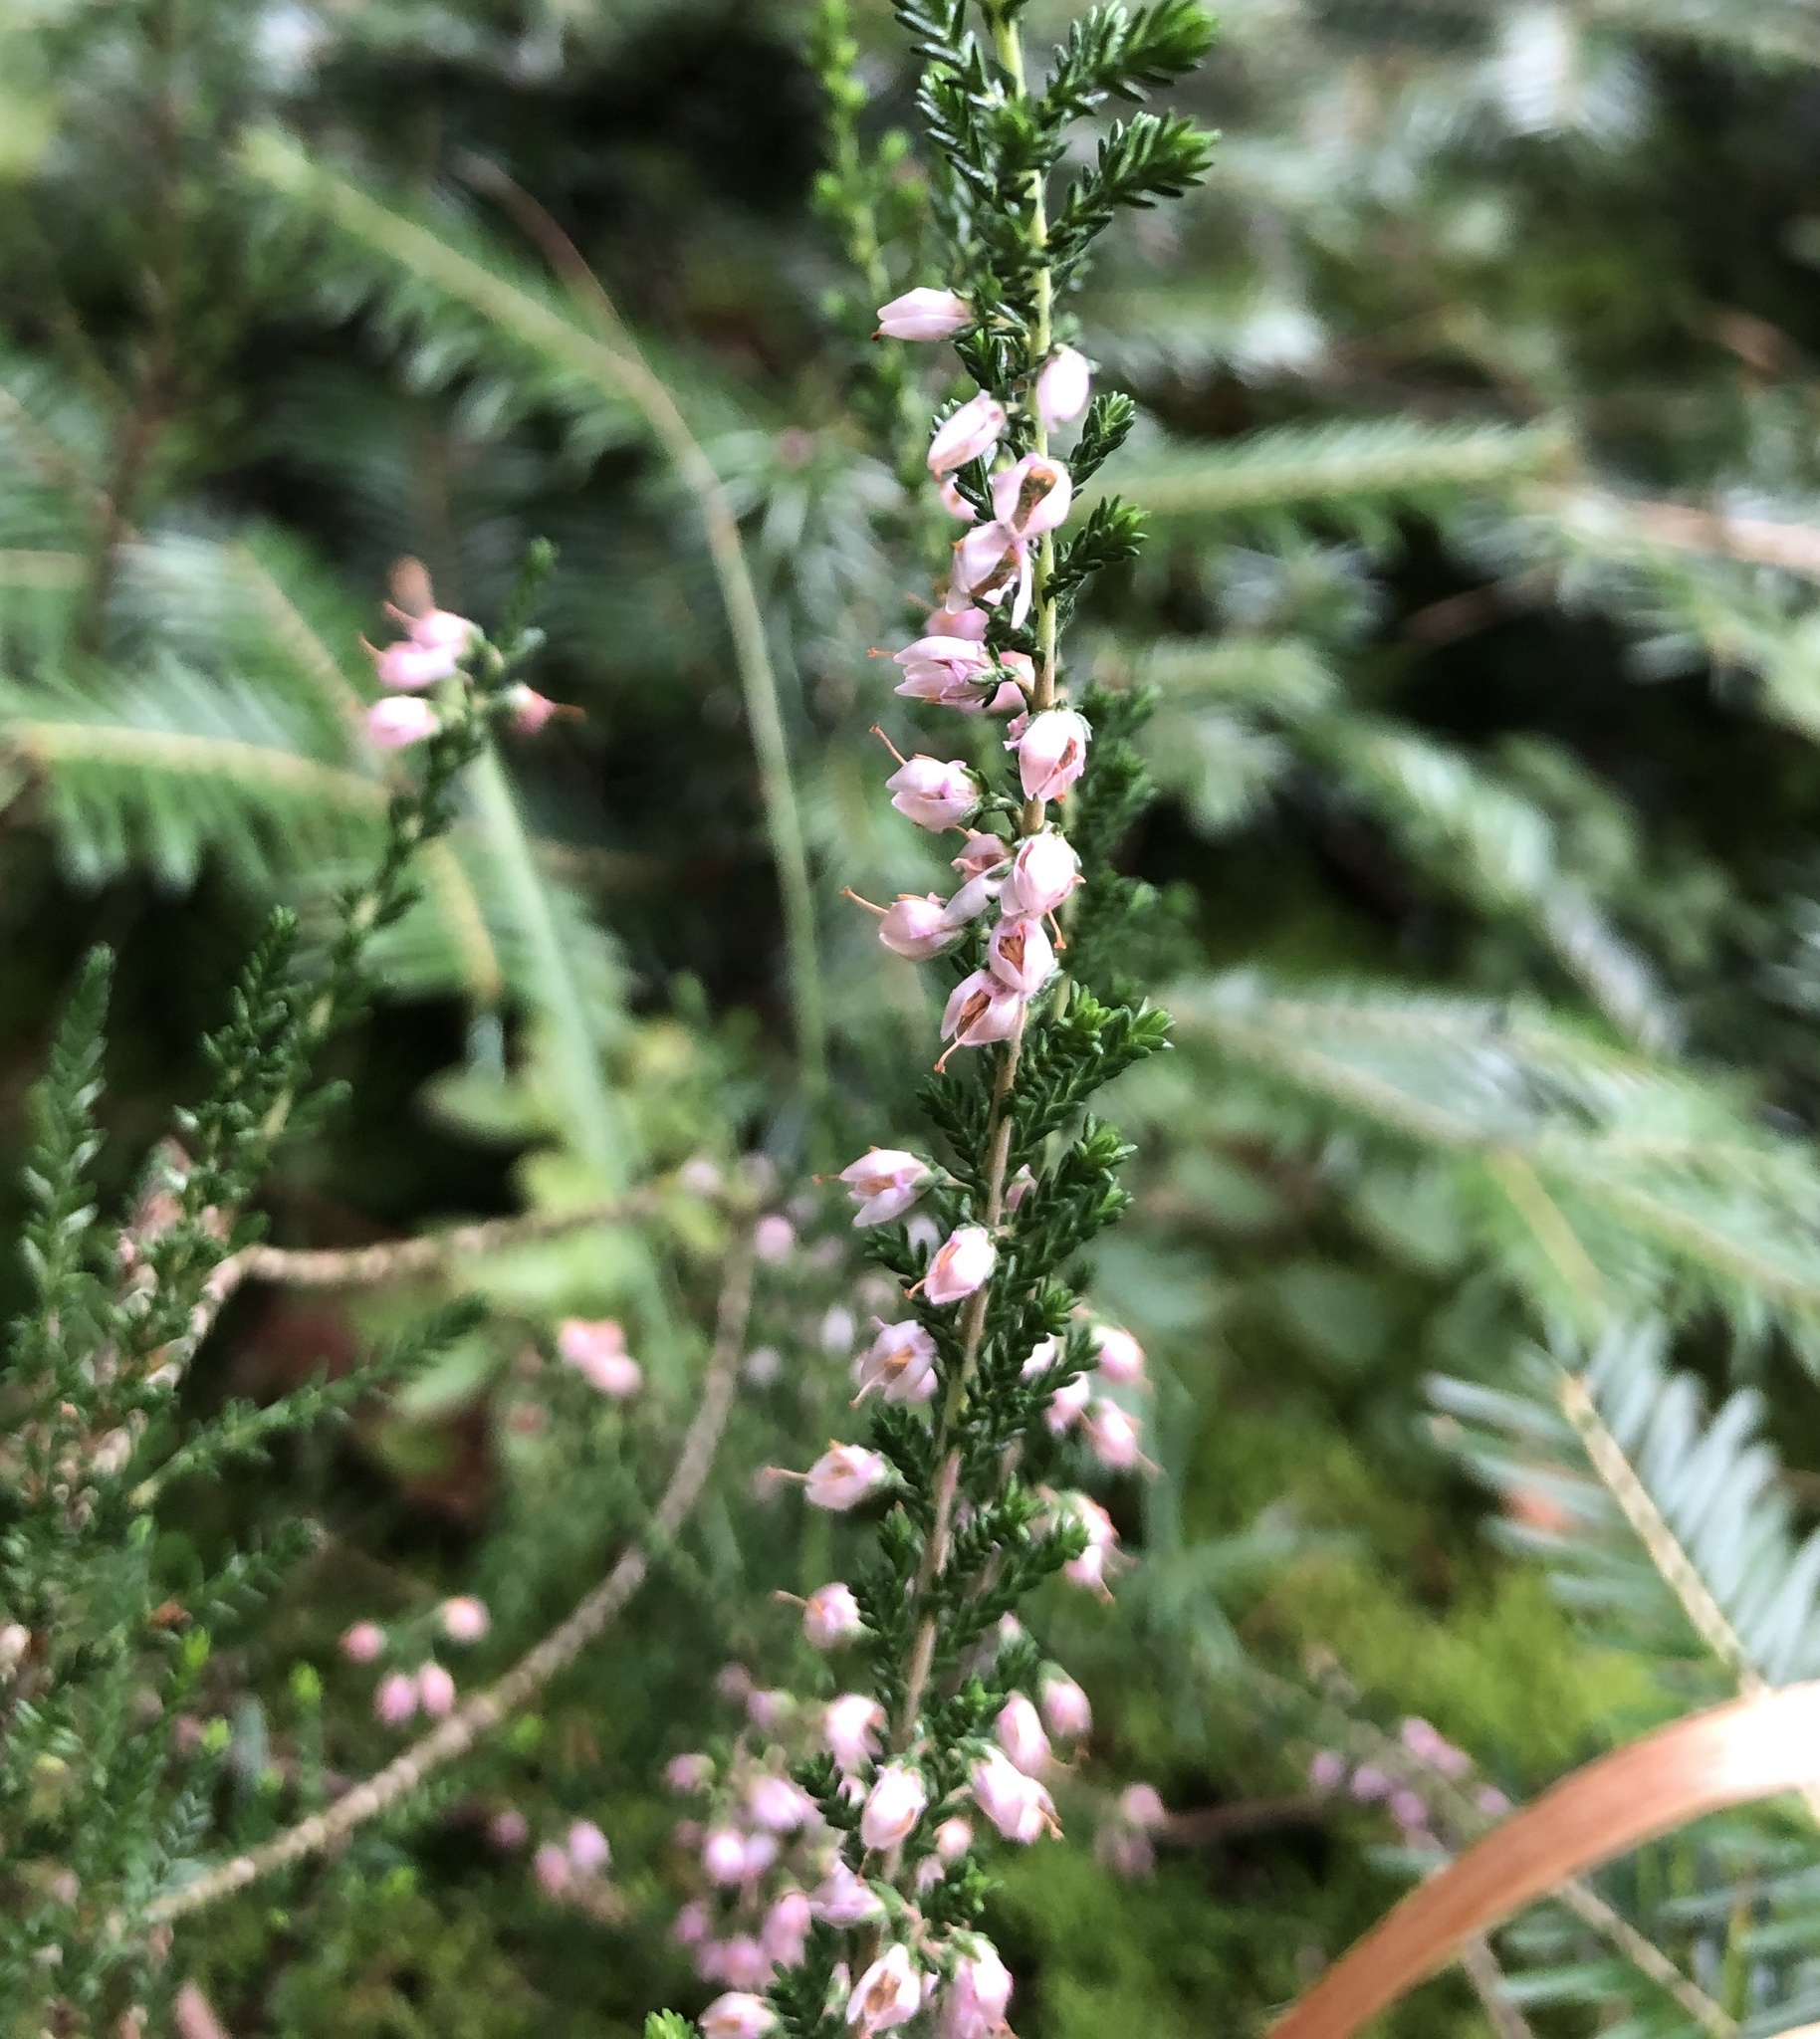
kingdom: Plantae
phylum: Tracheophyta
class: Magnoliopsida
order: Ericales
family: Ericaceae
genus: Calluna
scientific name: Calluna vulgaris
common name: Heather
